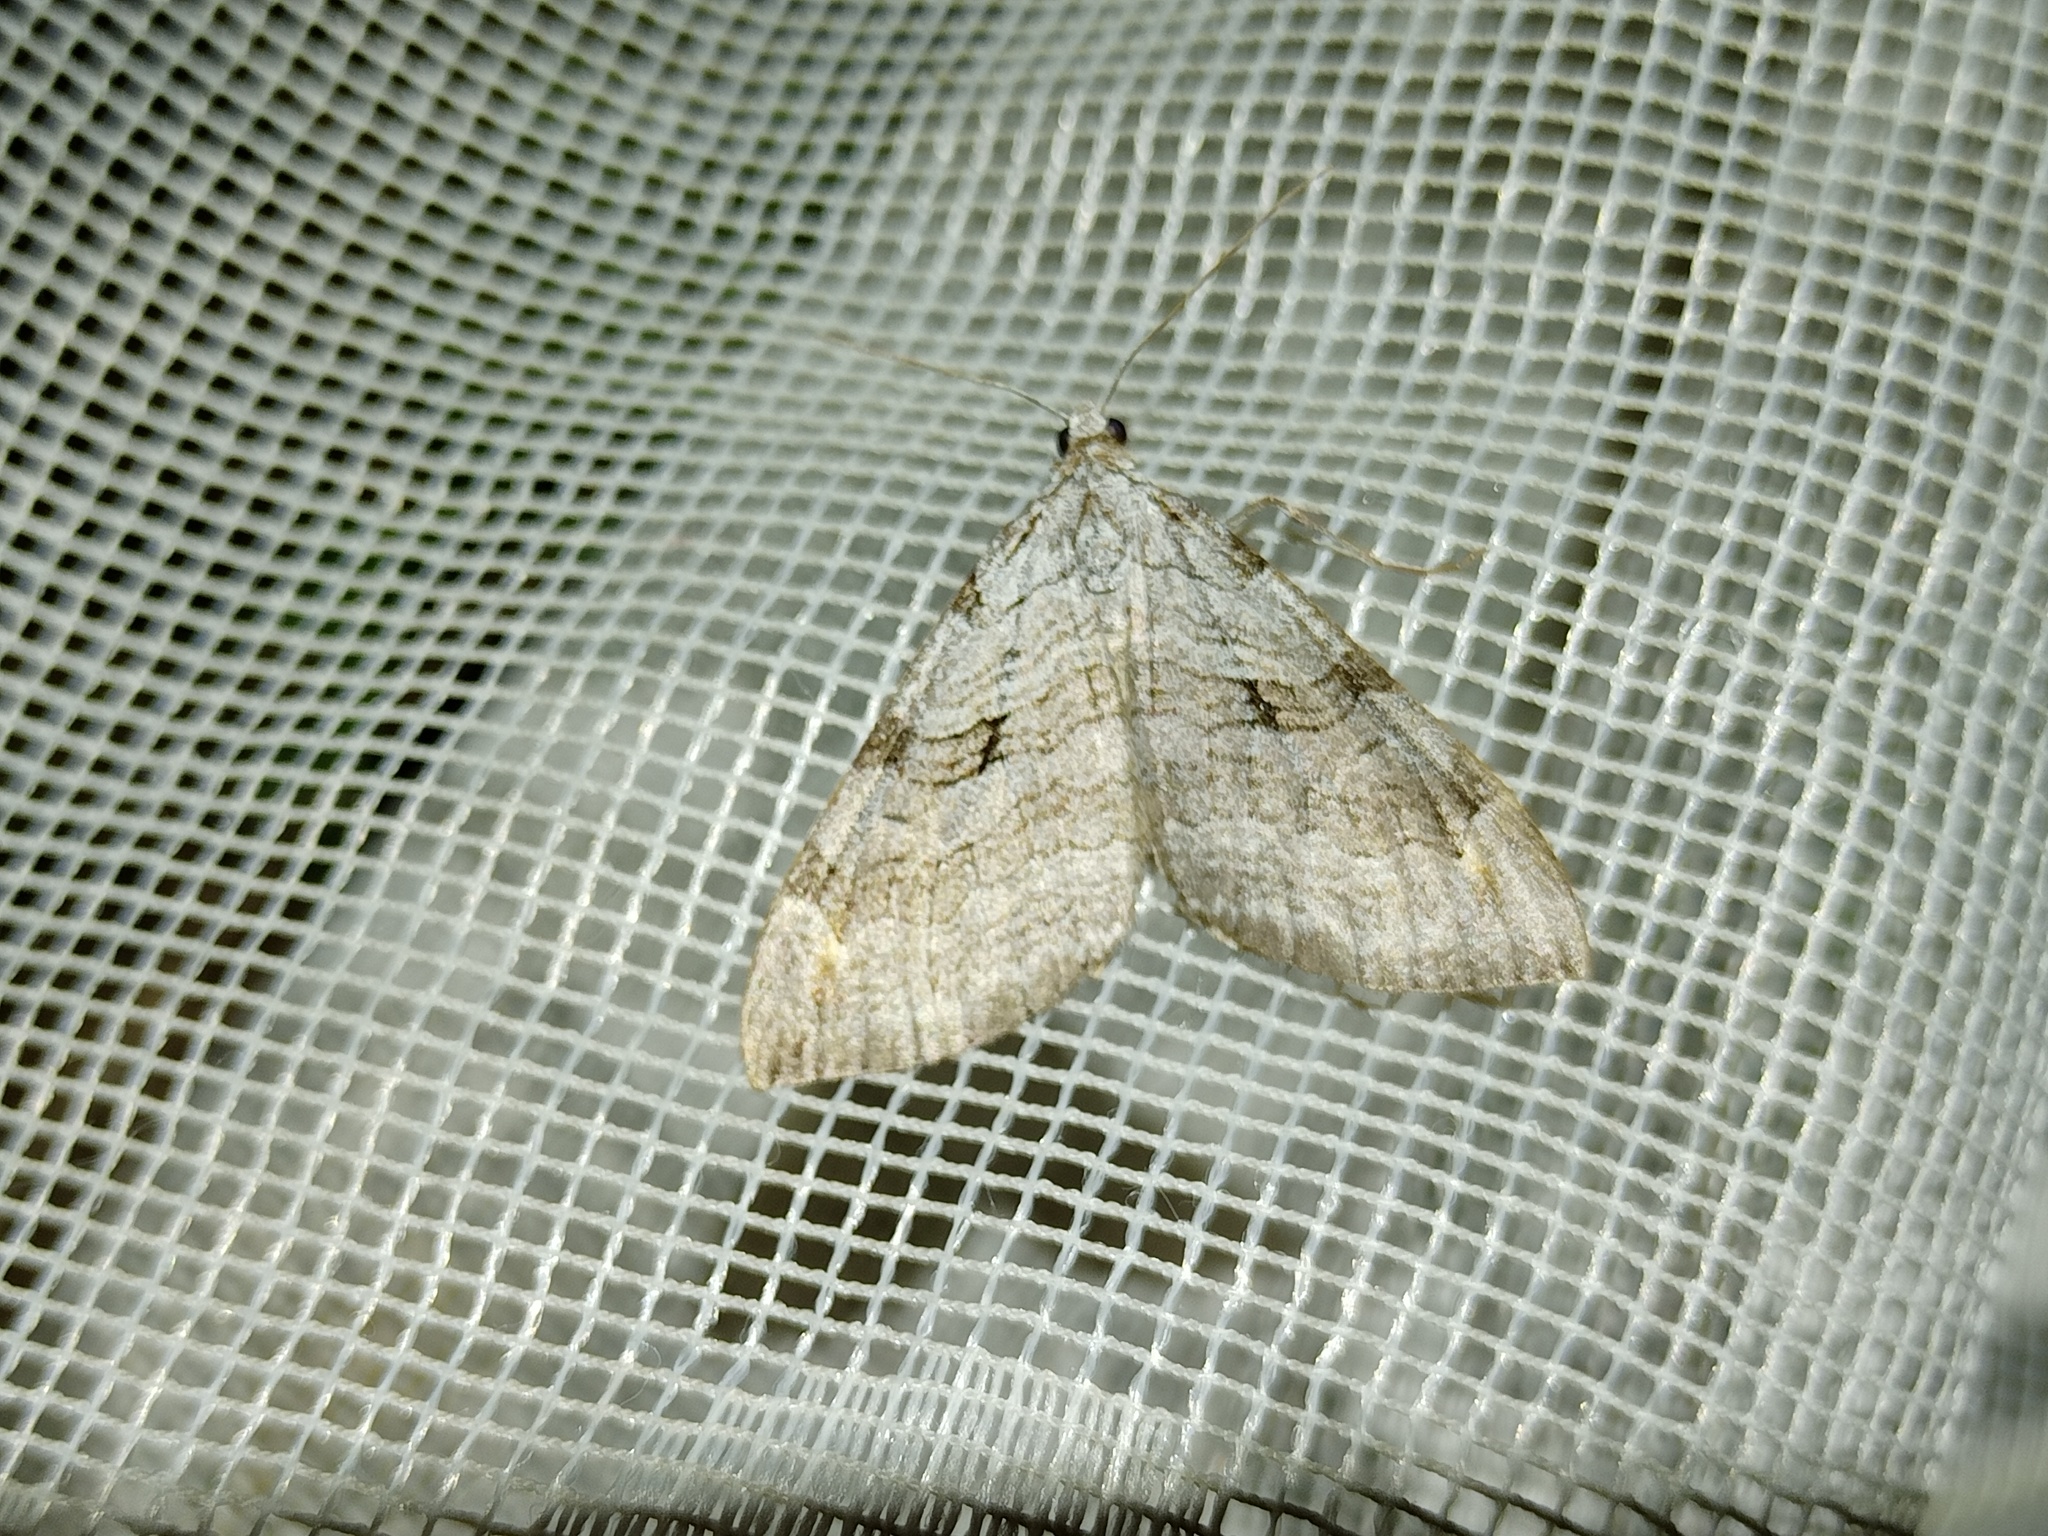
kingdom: Animalia
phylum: Arthropoda
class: Insecta
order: Lepidoptera
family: Geometridae
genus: Aplocera
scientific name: Aplocera plagiata
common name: Treble-bar
